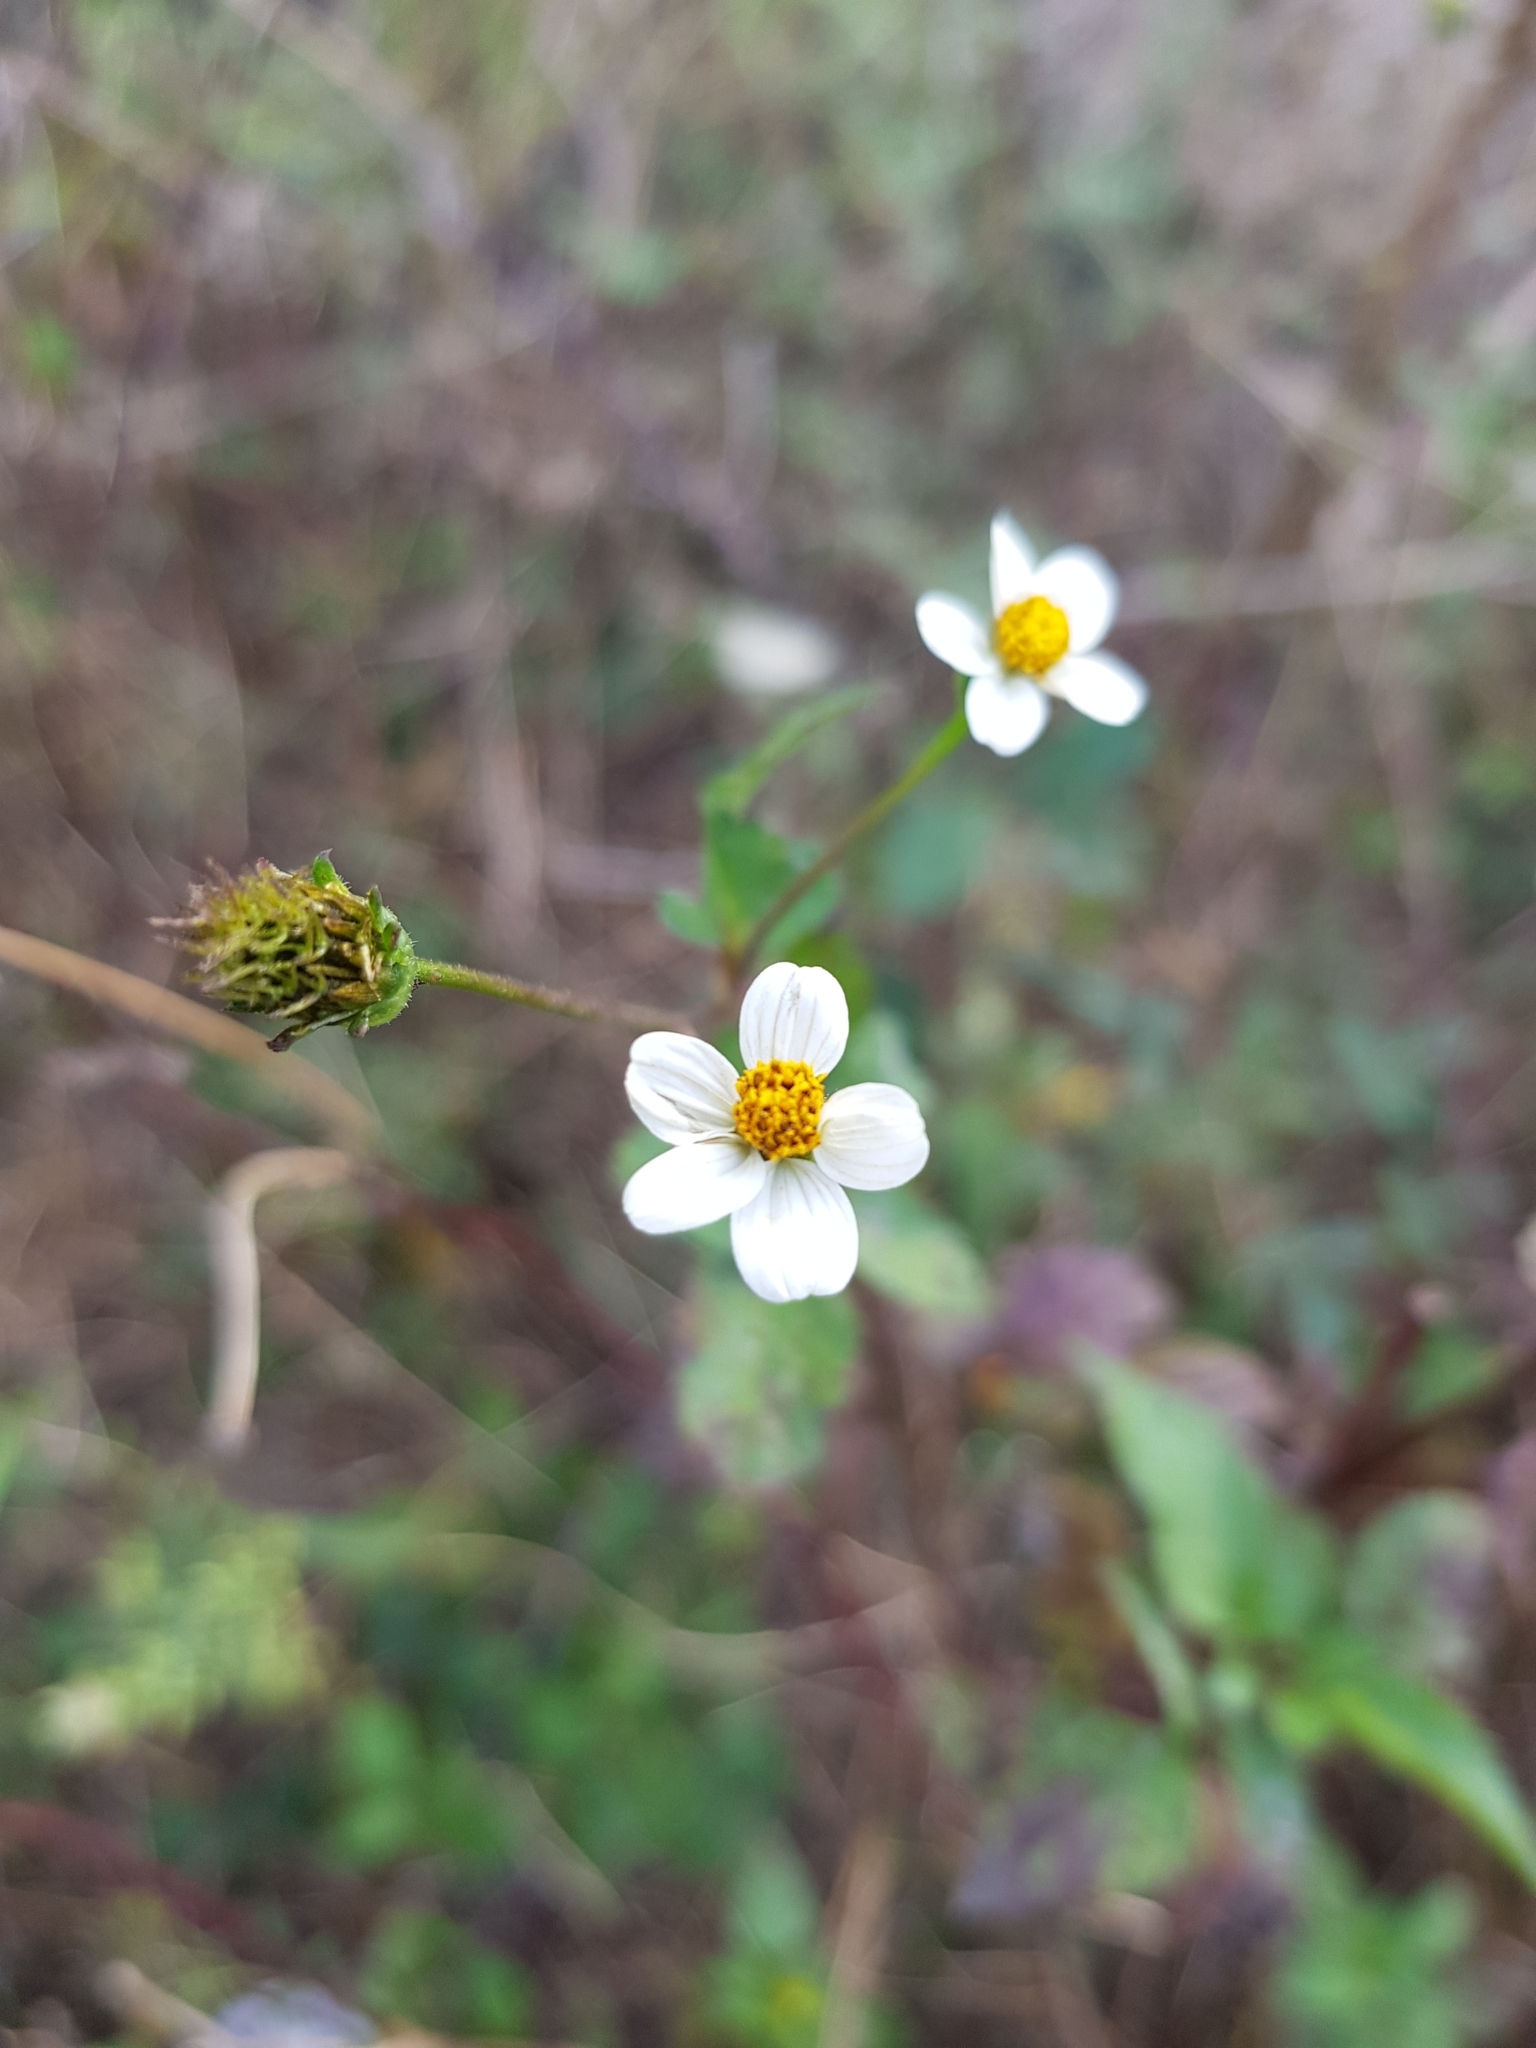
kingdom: Plantae
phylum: Tracheophyta
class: Magnoliopsida
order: Asterales
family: Asteraceae
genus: Bidens
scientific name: Bidens pilosa
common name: Black-jack
